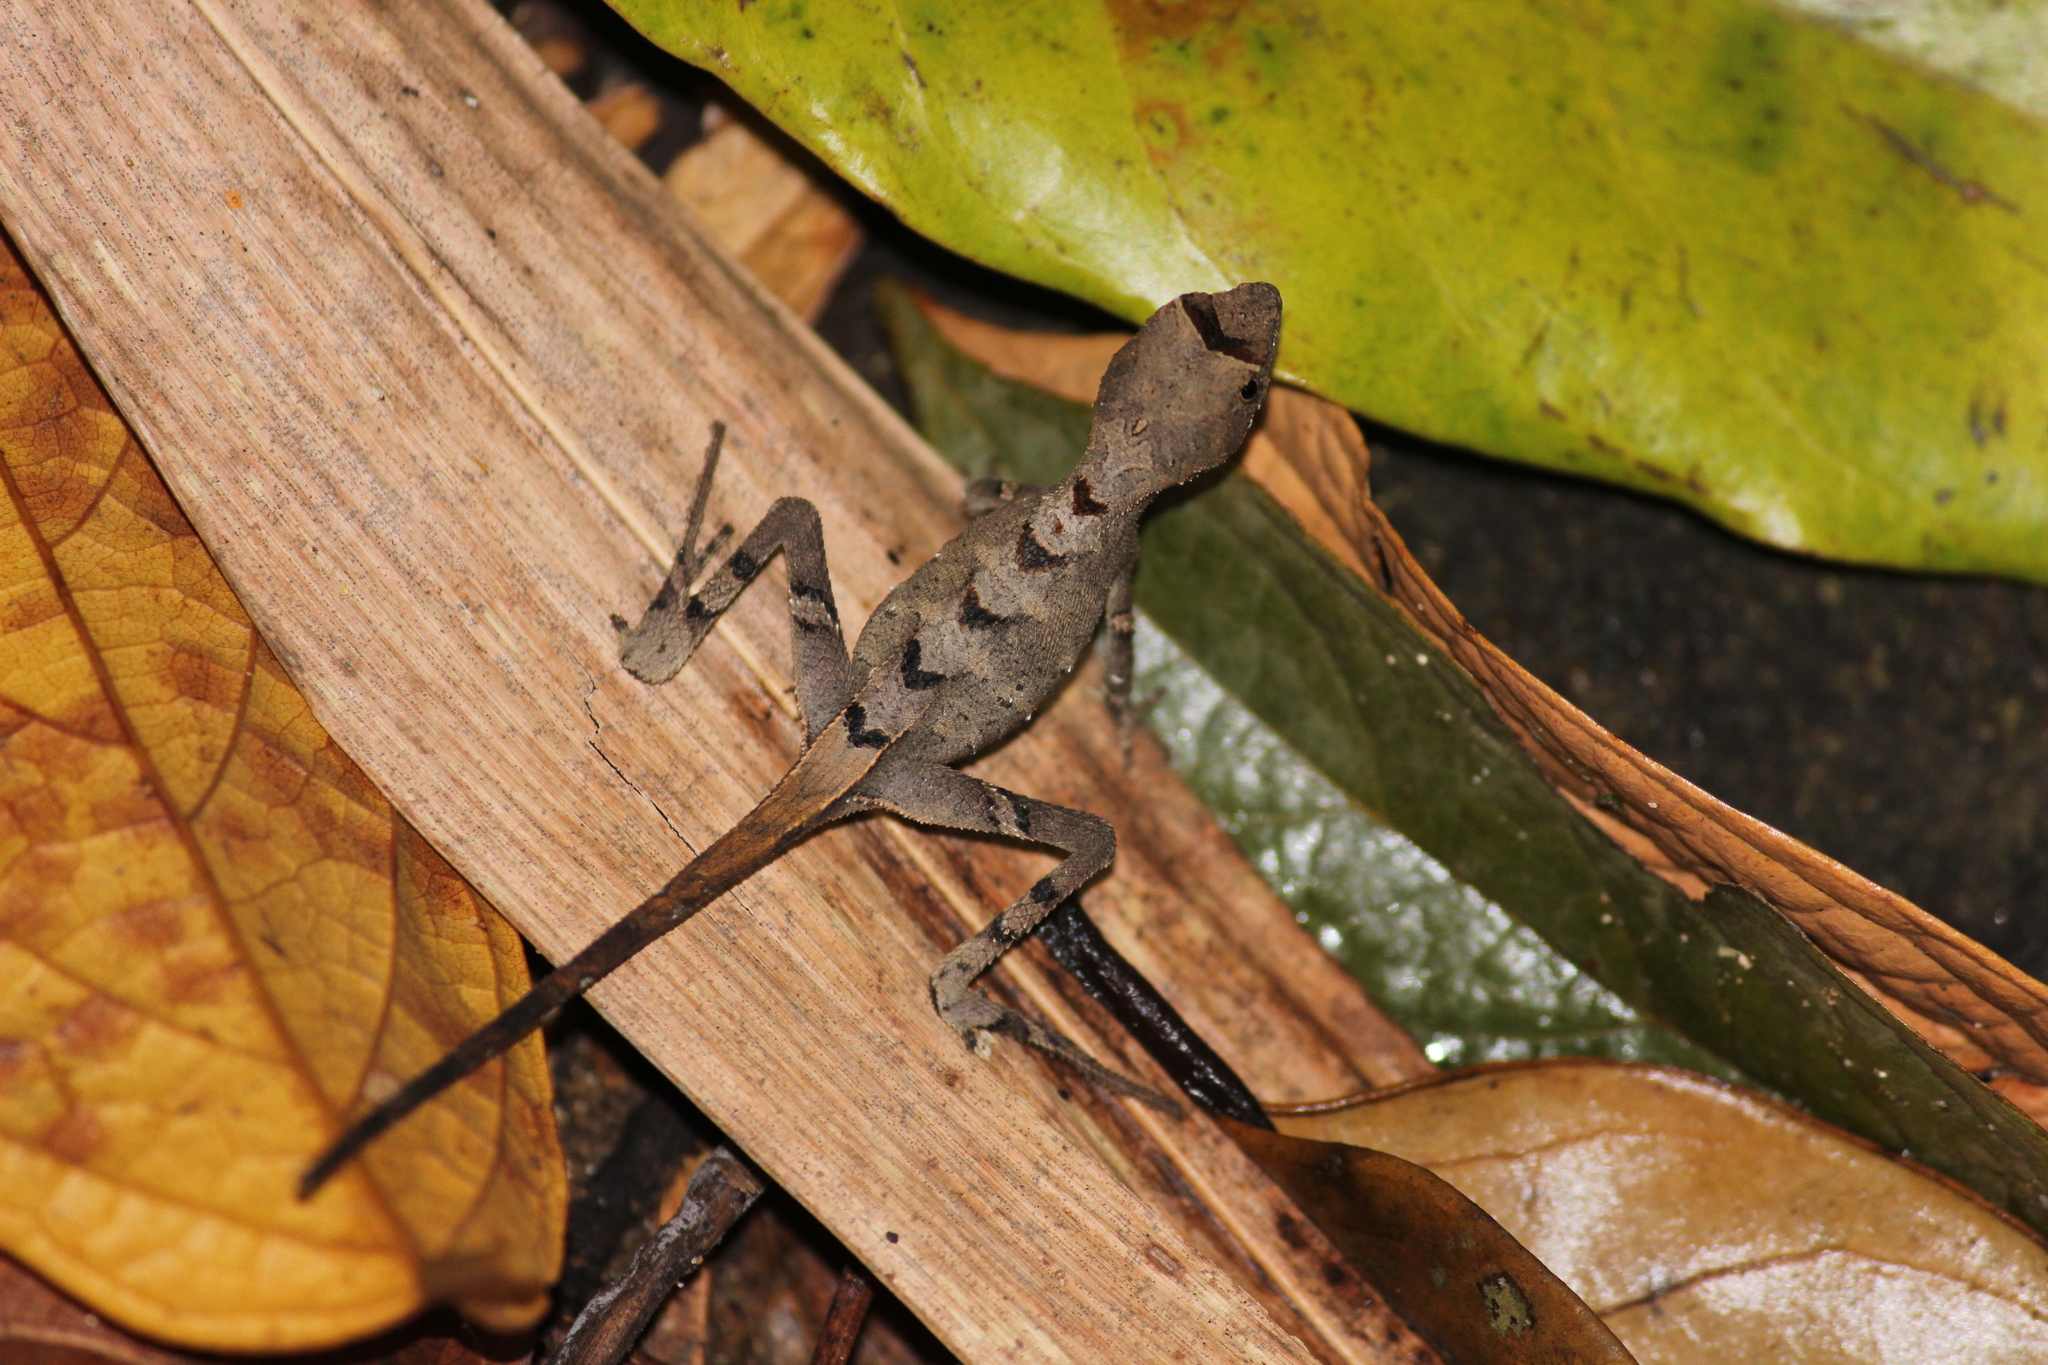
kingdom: Animalia
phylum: Chordata
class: Squamata
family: Agamidae
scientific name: Agamidae
